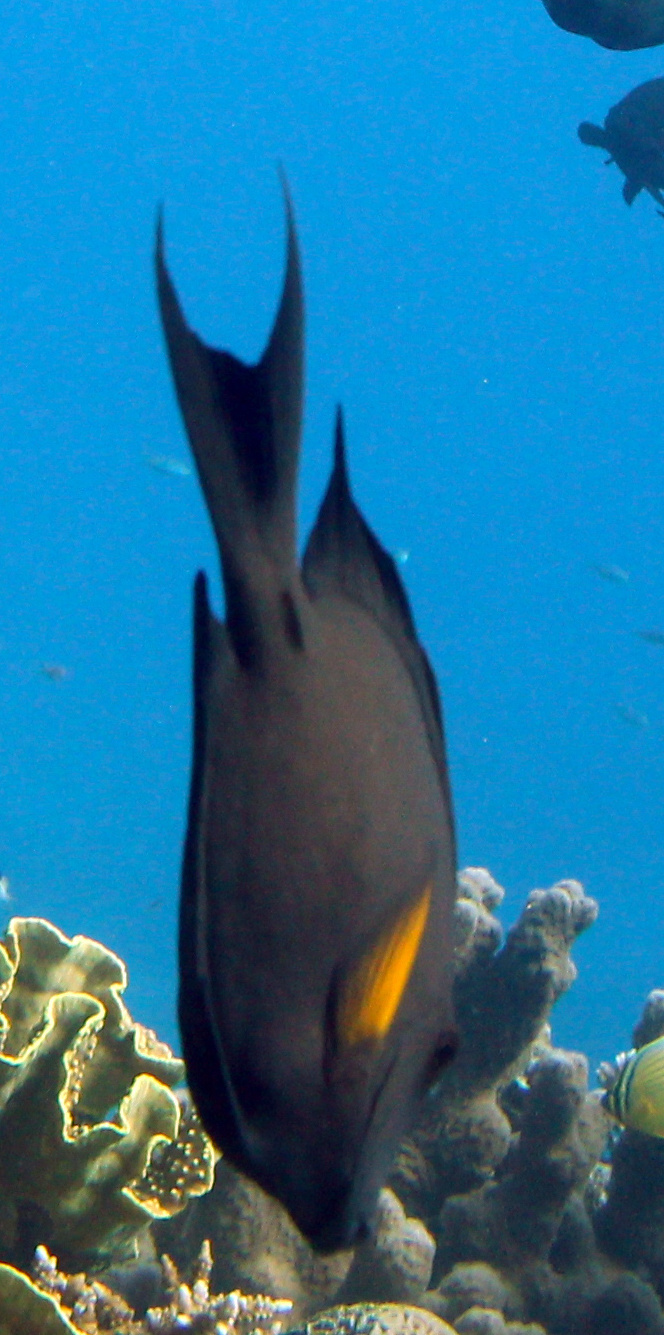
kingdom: Animalia
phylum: Chordata
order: Perciformes
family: Acanthuridae
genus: Ctenochaetus
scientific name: Ctenochaetus striatus
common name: Bristle-toothed surgeonfish
